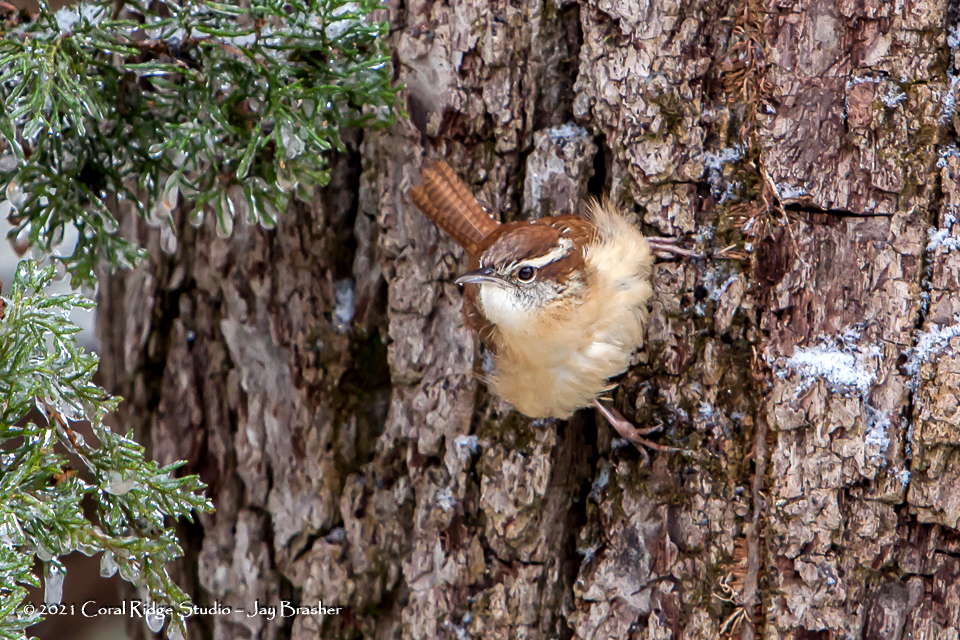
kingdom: Animalia
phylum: Chordata
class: Aves
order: Passeriformes
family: Troglodytidae
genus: Thryothorus
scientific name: Thryothorus ludovicianus
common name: Carolina wren
